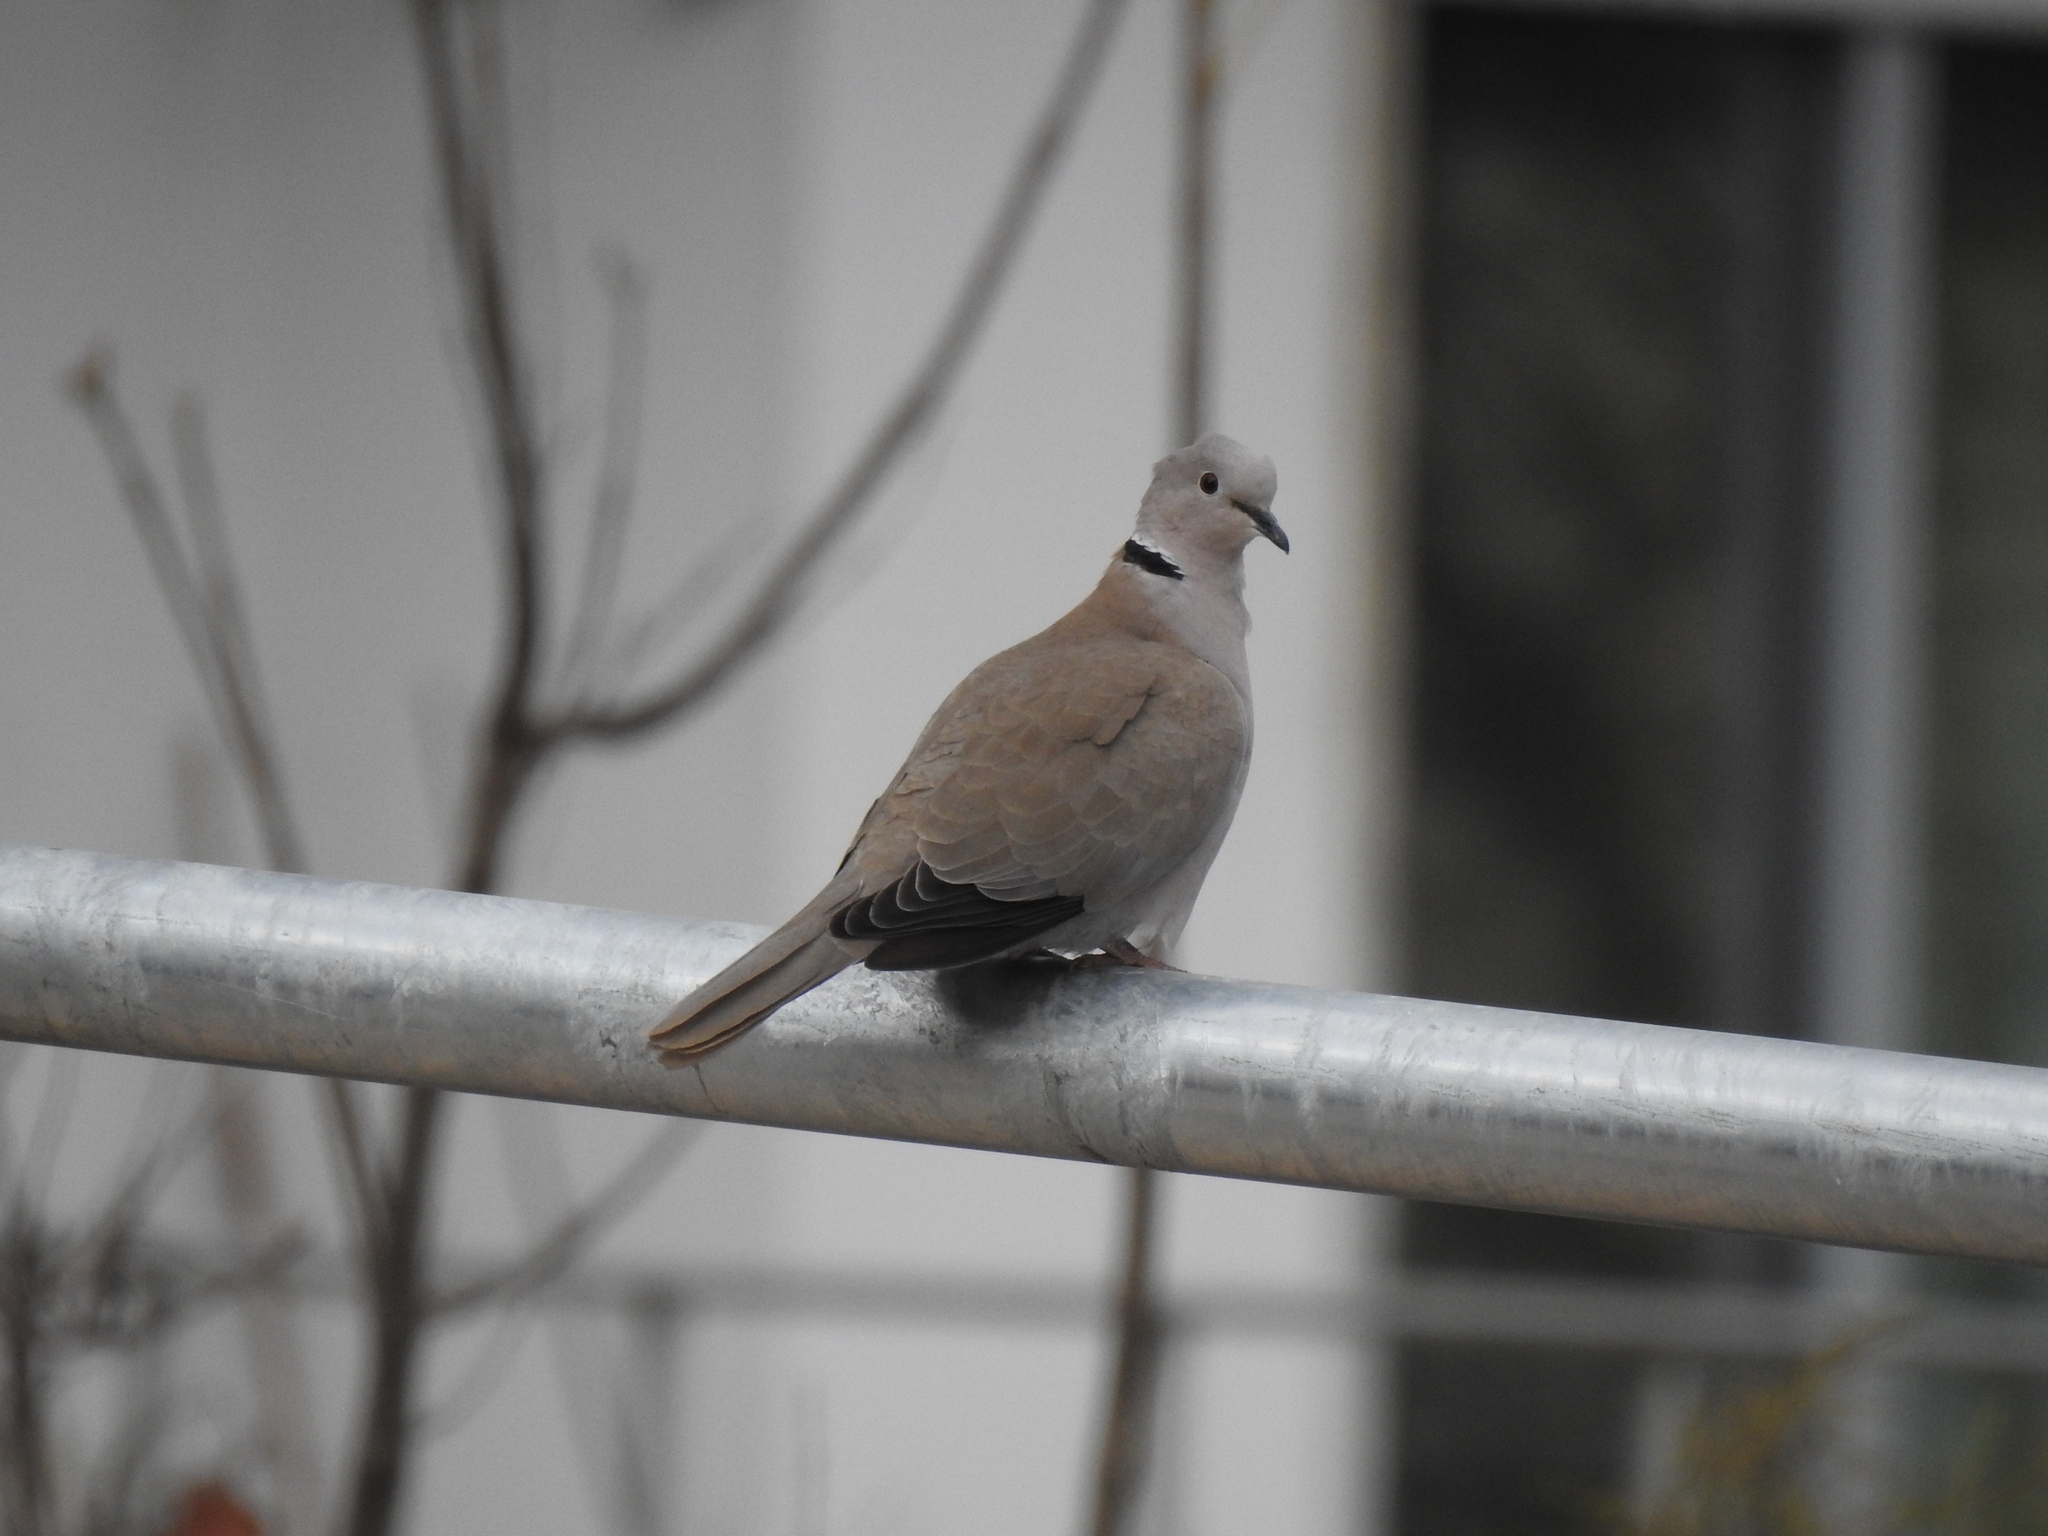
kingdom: Animalia
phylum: Chordata
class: Aves
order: Columbiformes
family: Columbidae
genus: Streptopelia
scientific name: Streptopelia decaocto
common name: Eurasian collared dove
